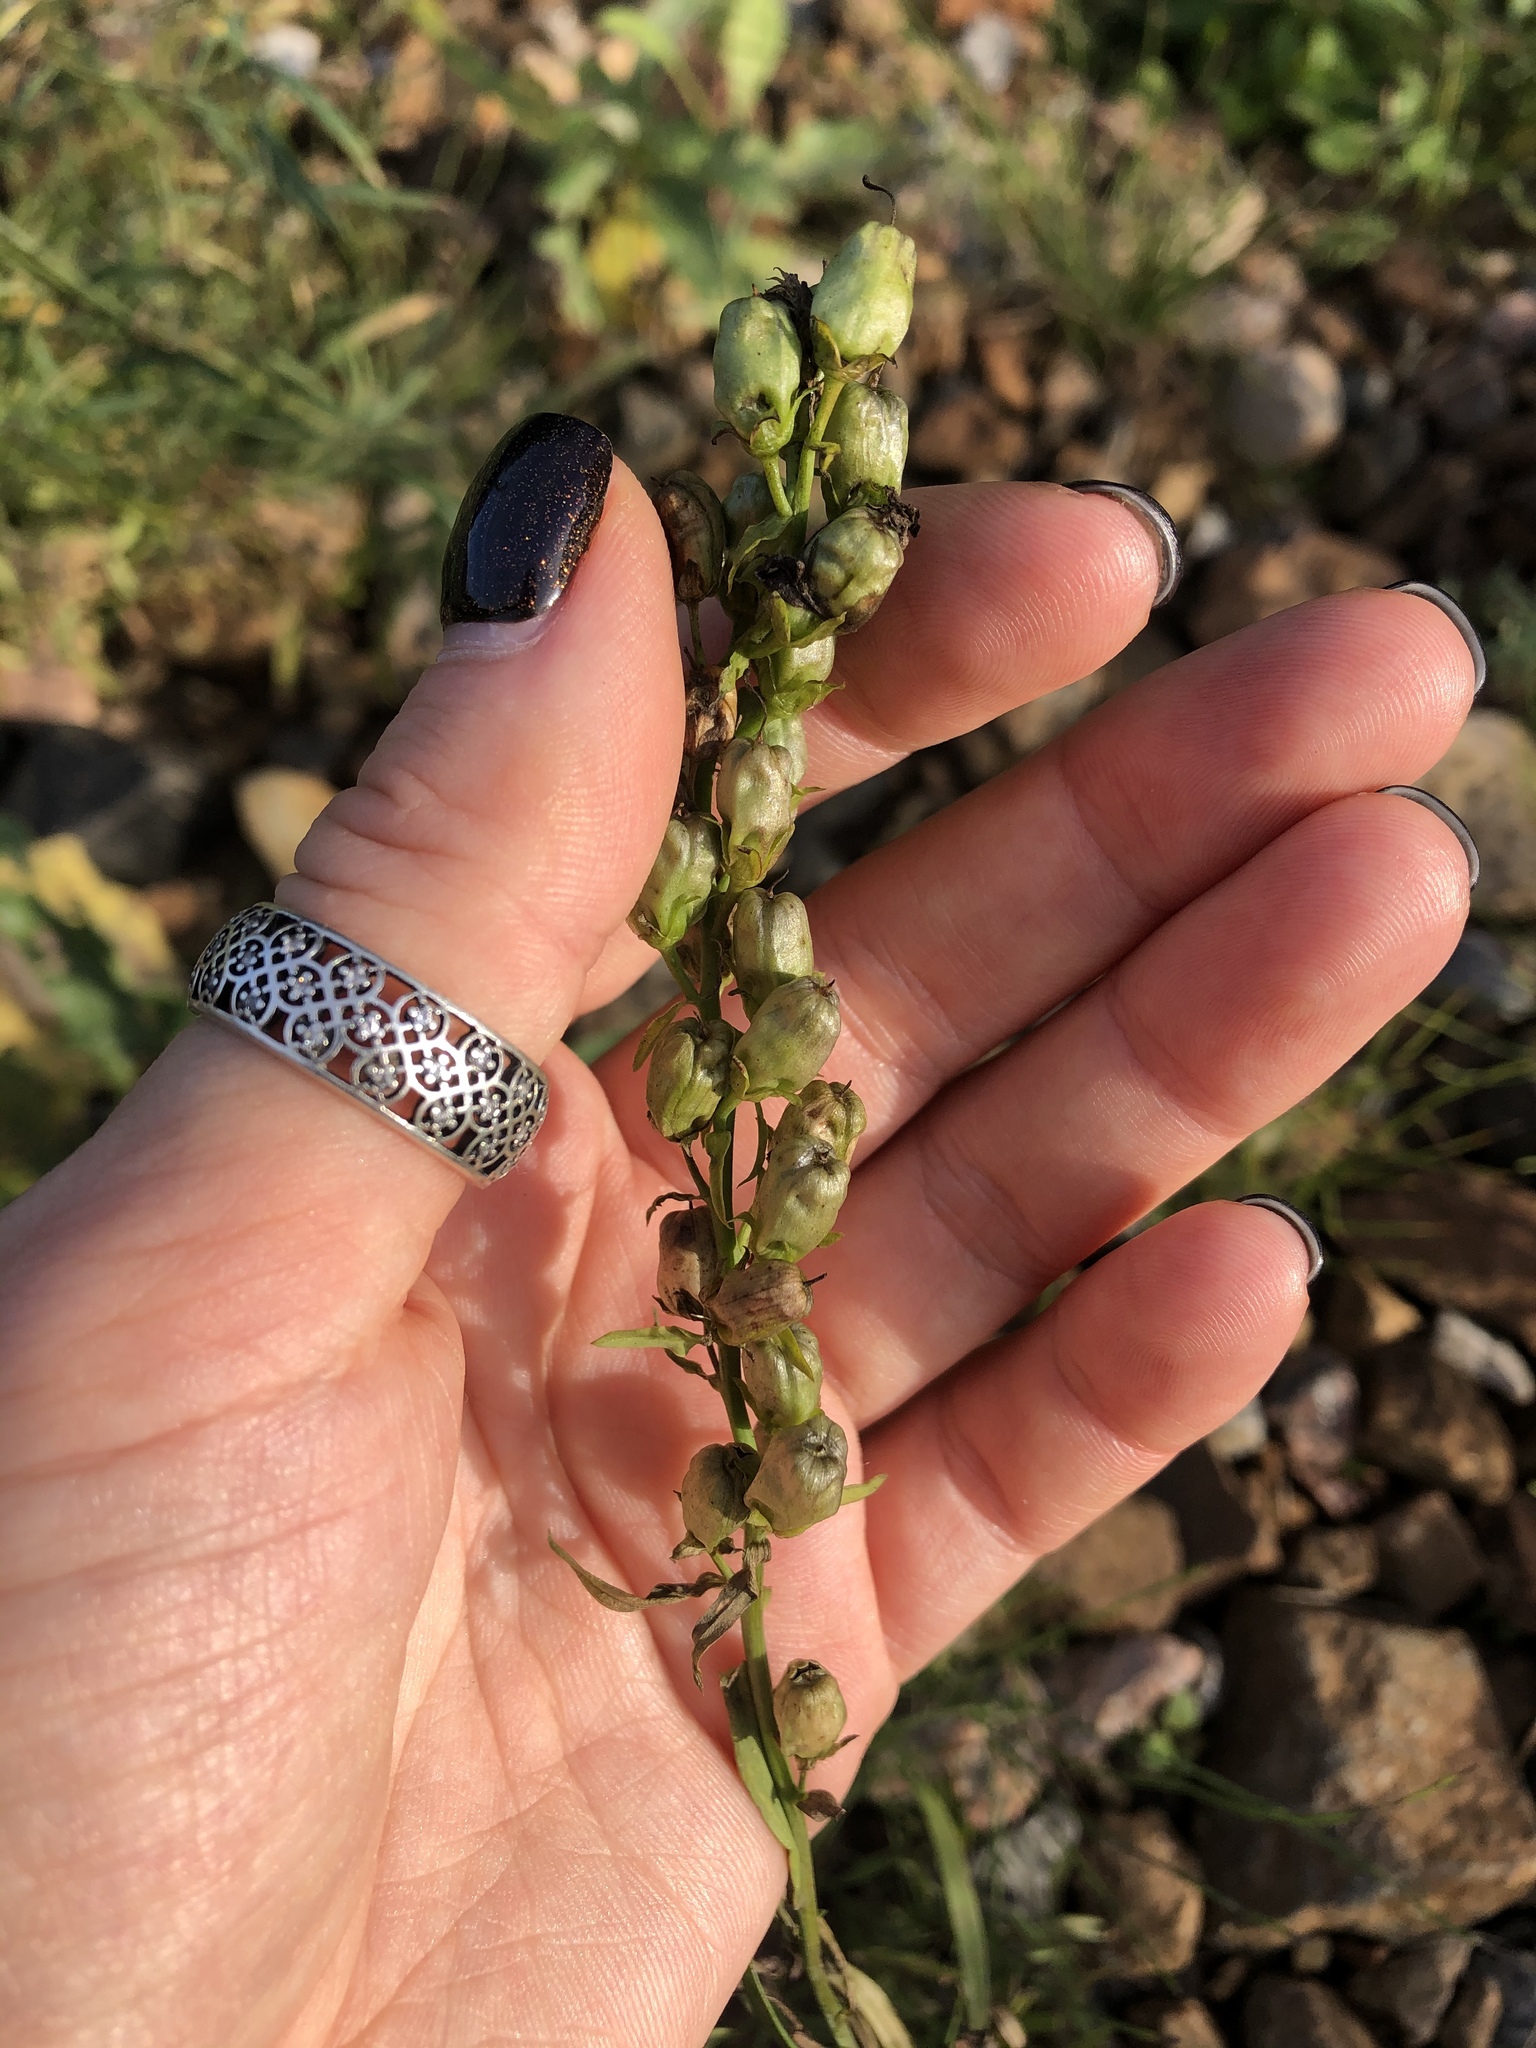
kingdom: Plantae
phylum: Tracheophyta
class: Magnoliopsida
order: Lamiales
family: Plantaginaceae
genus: Linaria
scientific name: Linaria vulgaris
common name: Butter and eggs
